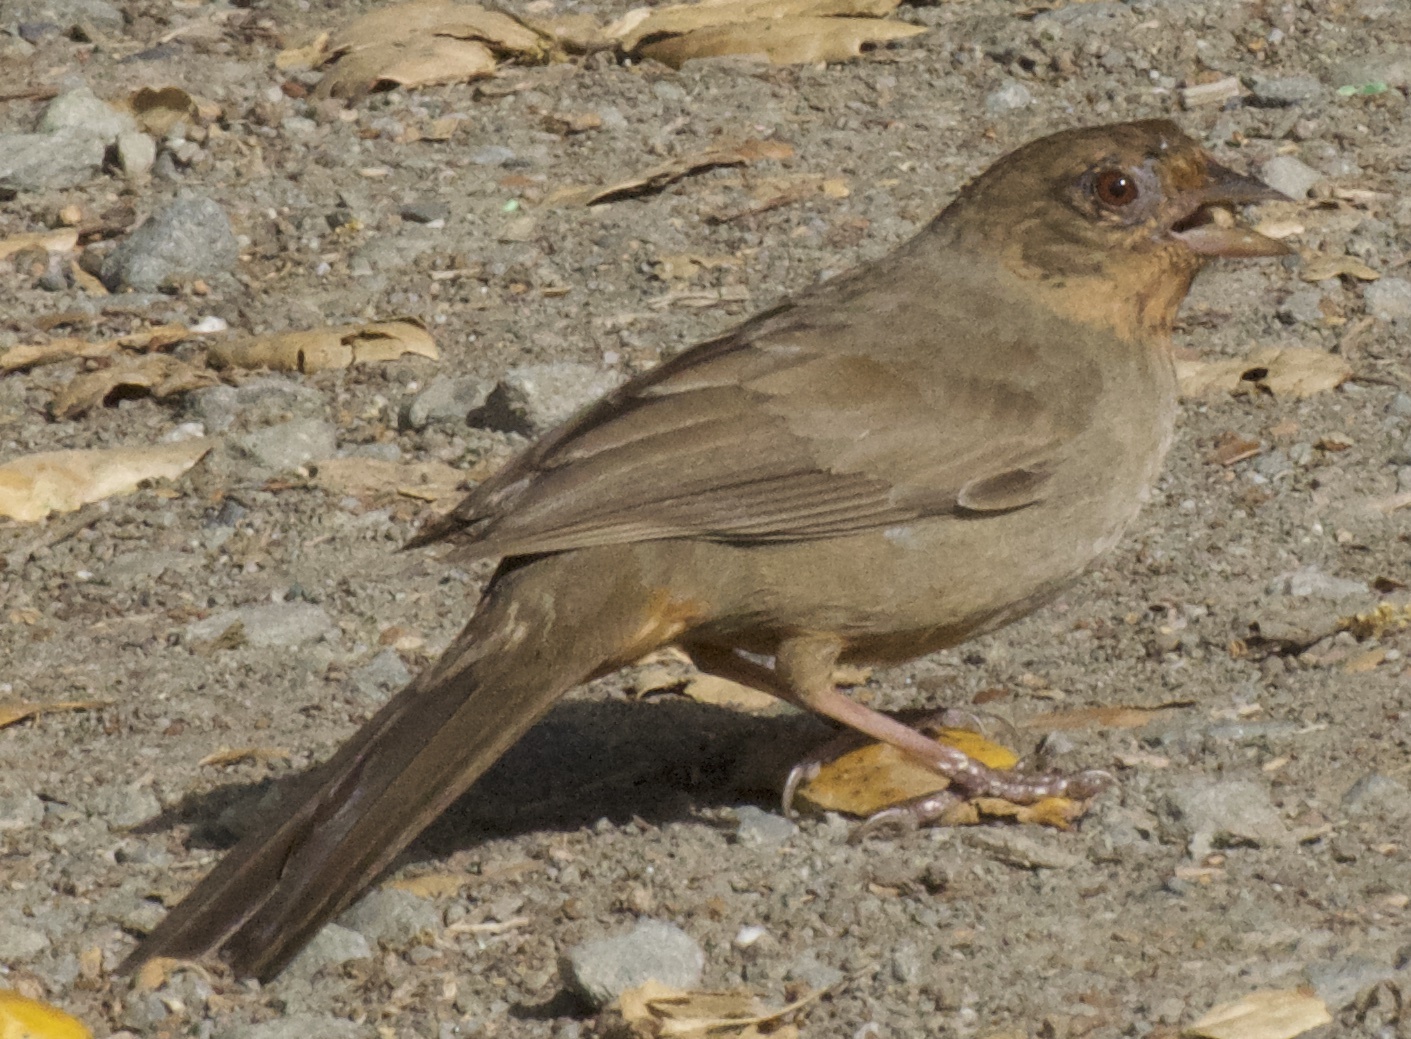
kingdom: Animalia
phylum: Chordata
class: Aves
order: Passeriformes
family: Passerellidae
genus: Melozone
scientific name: Melozone crissalis
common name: California towhee
